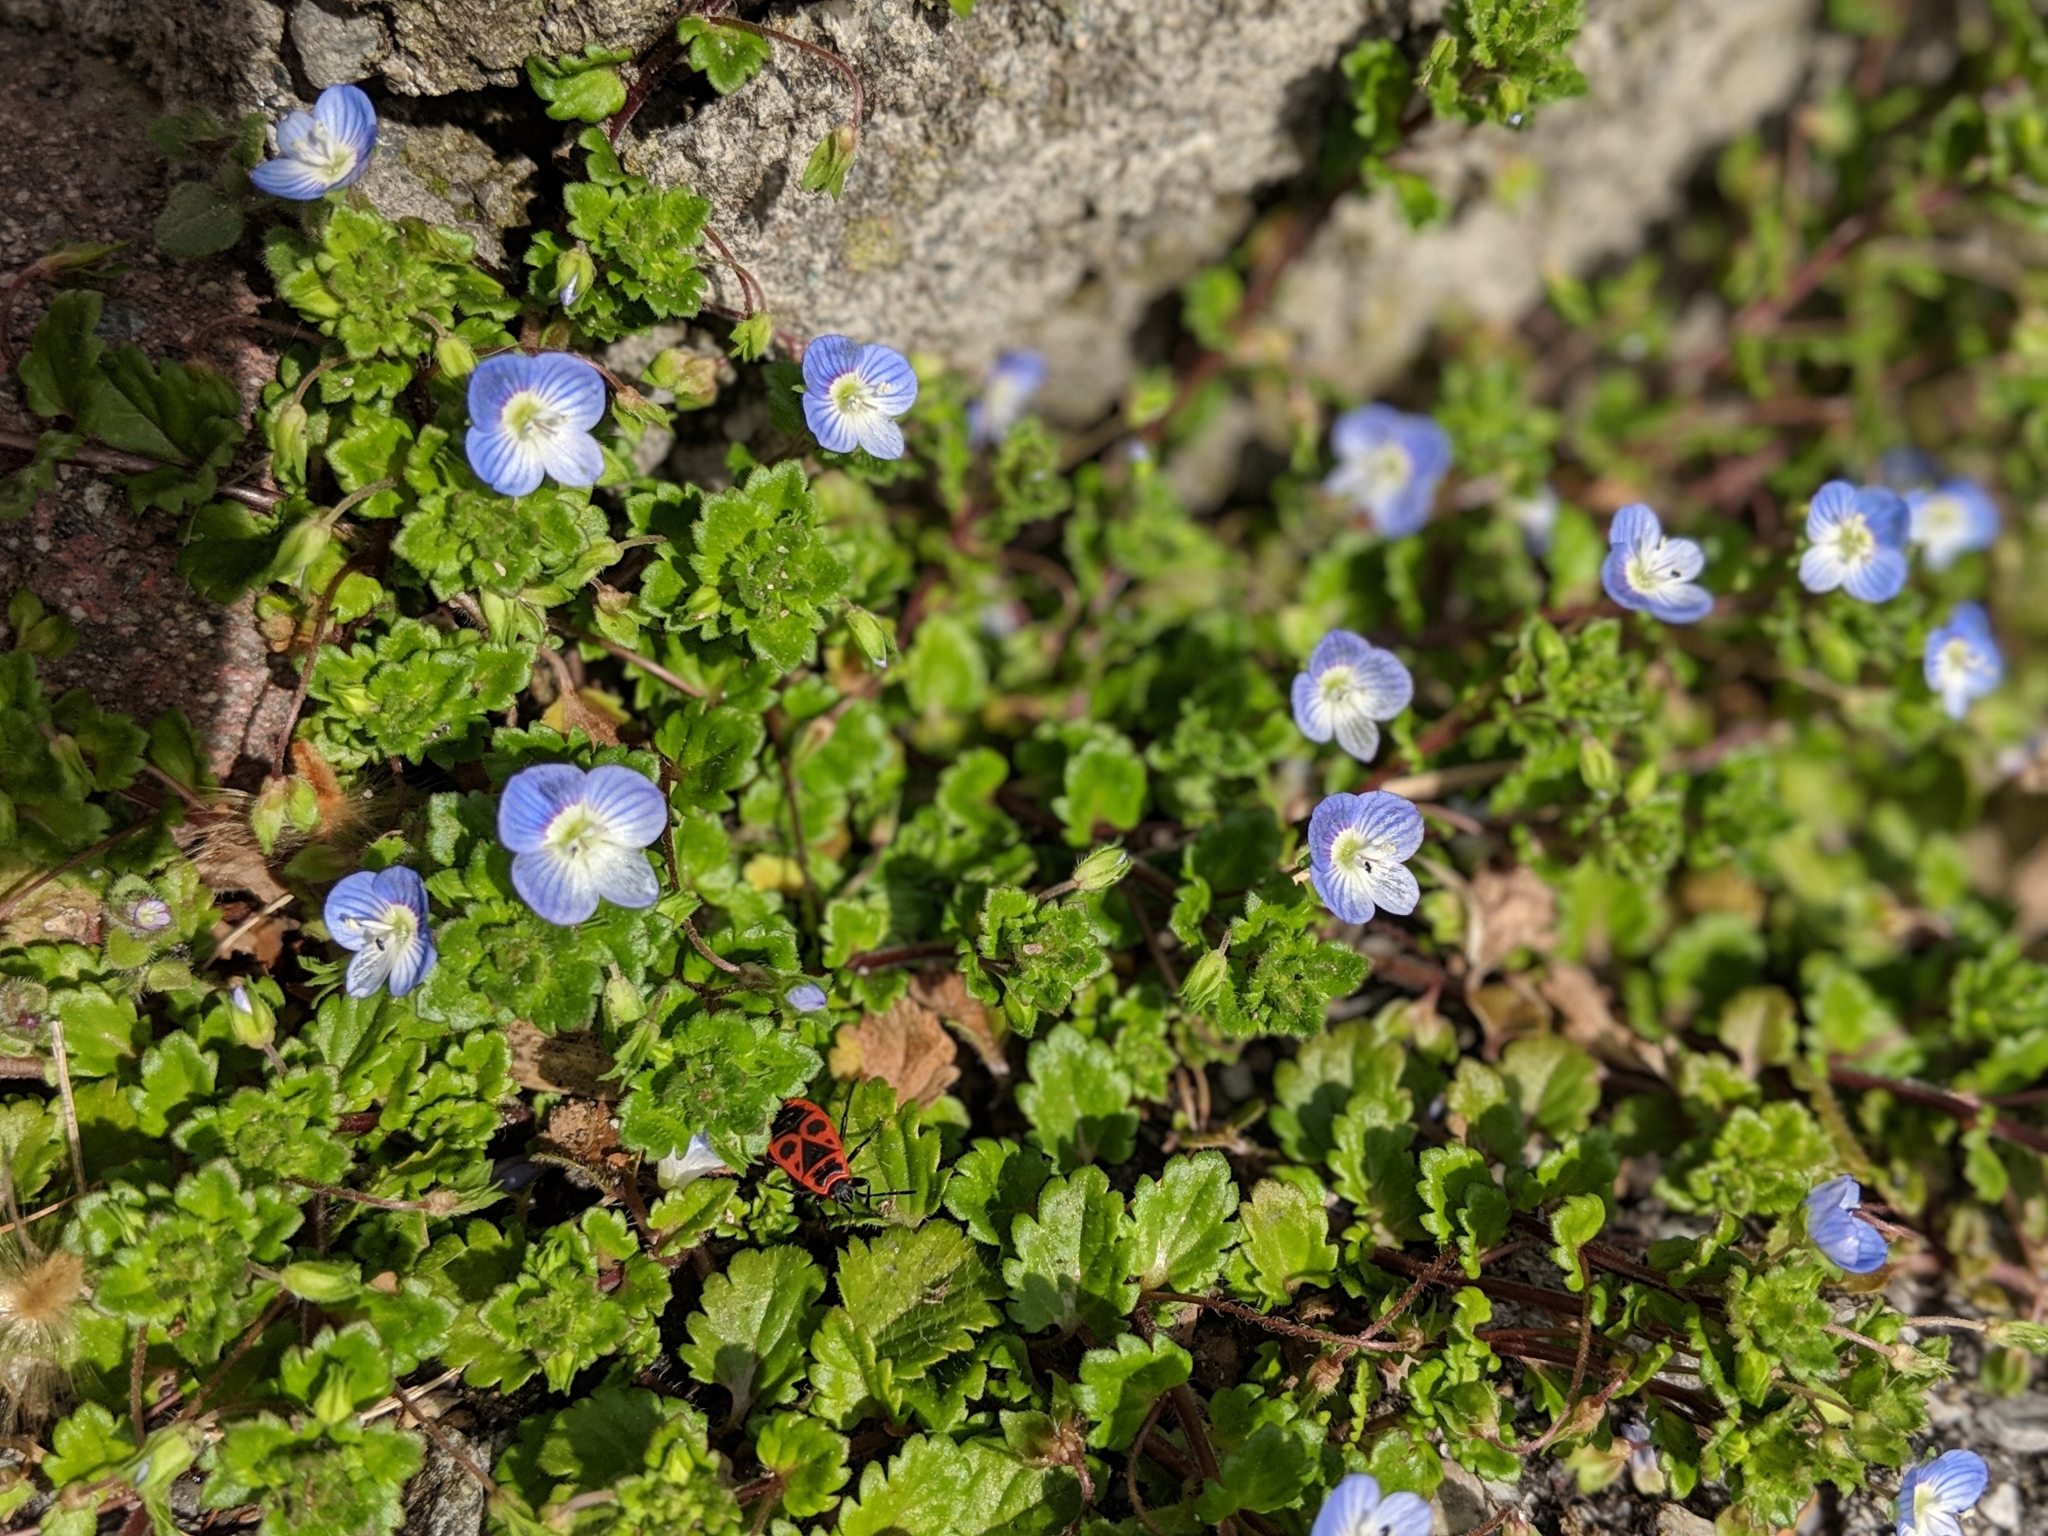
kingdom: Plantae
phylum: Tracheophyta
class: Magnoliopsida
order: Lamiales
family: Plantaginaceae
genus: Veronica
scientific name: Veronica persica
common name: Common field-speedwell
